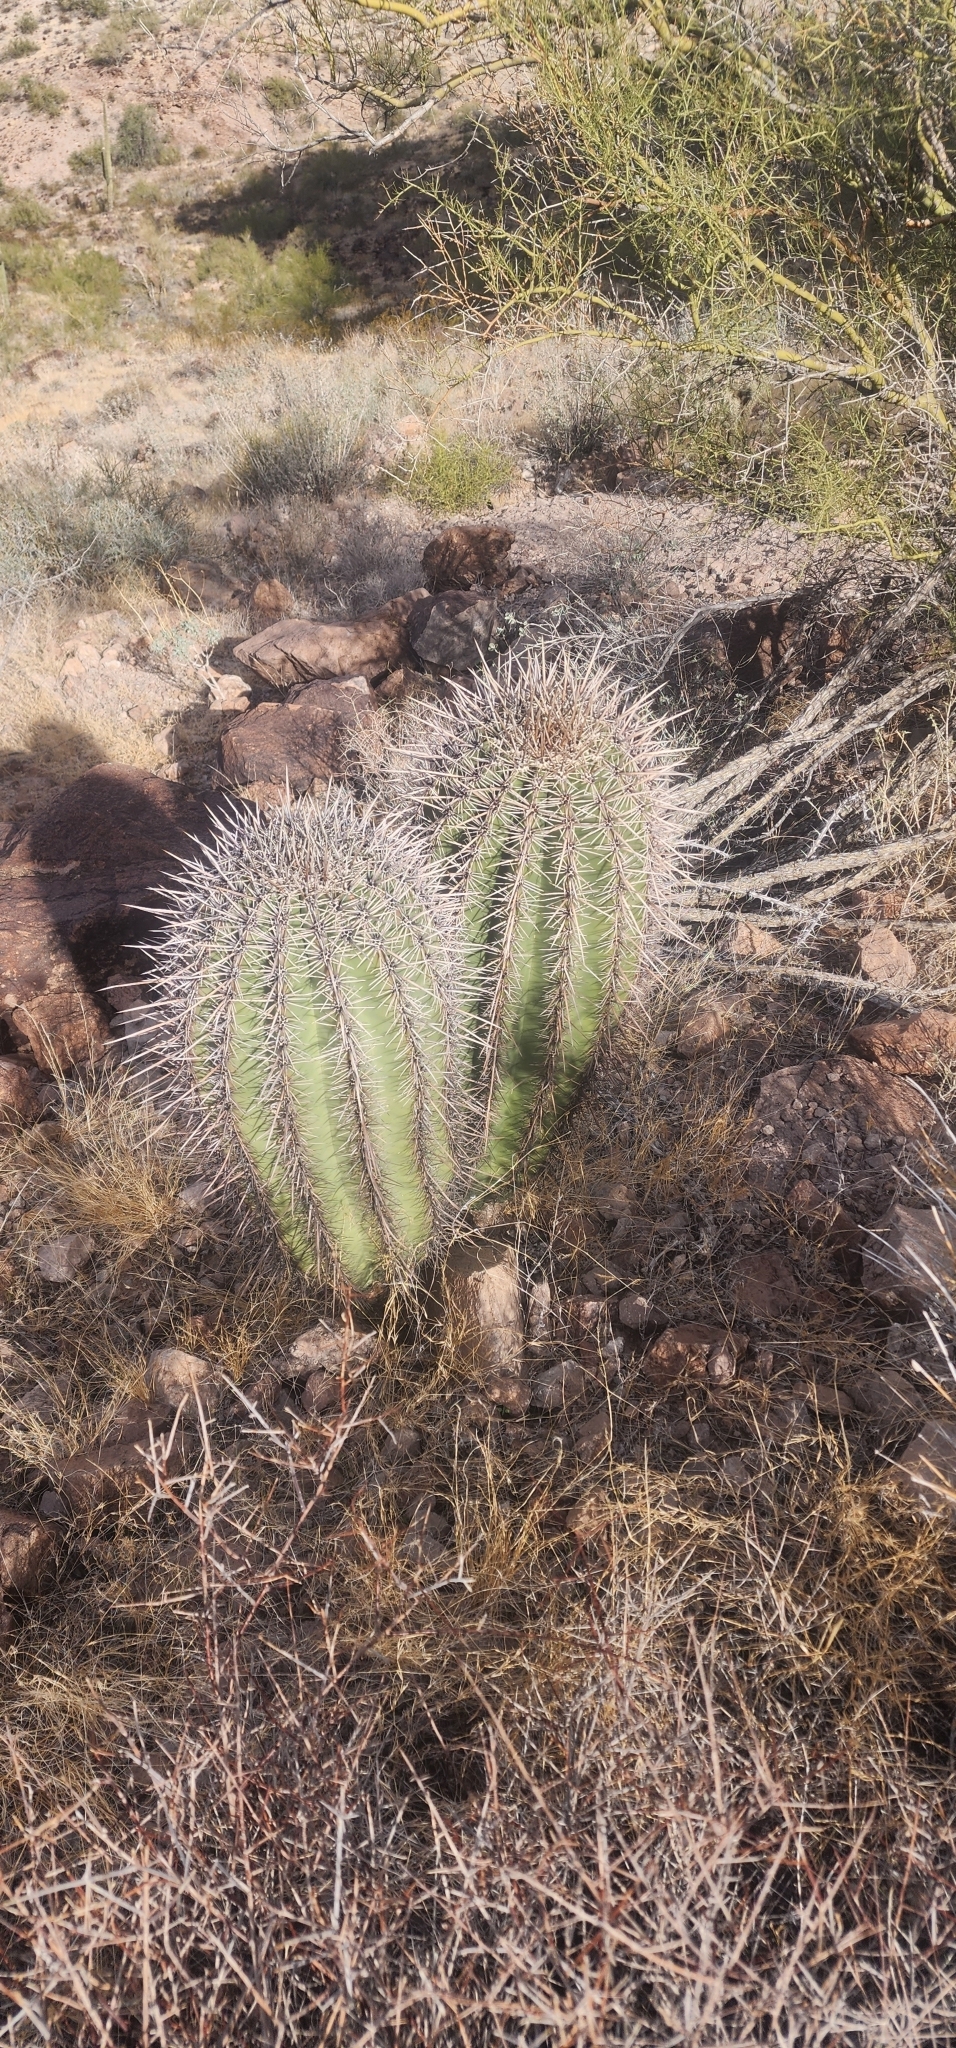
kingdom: Plantae
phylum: Tracheophyta
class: Magnoliopsida
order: Caryophyllales
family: Cactaceae
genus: Carnegiea
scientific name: Carnegiea gigantea
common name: Saguaro
